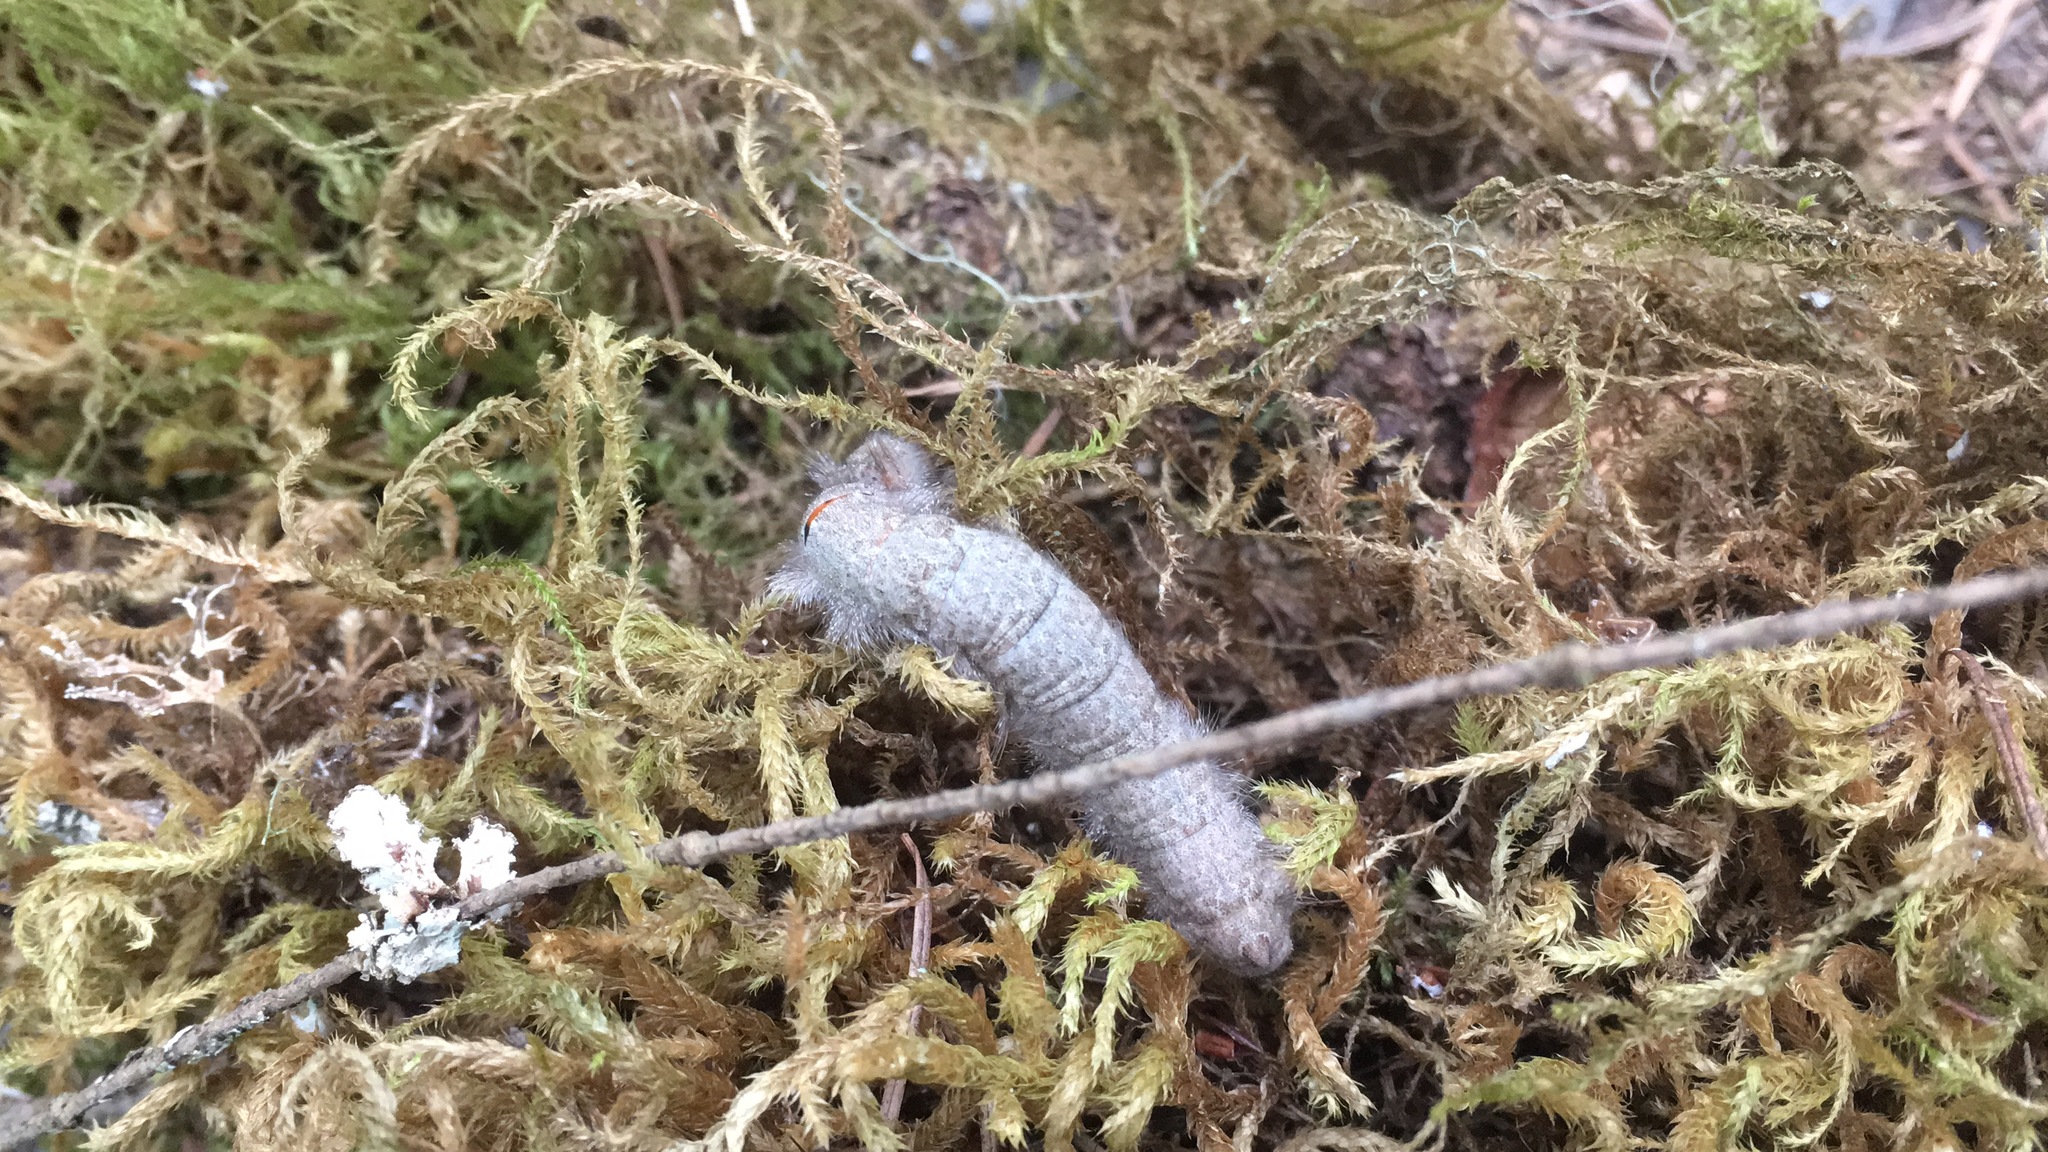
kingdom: Animalia
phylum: Arthropoda
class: Insecta
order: Lepidoptera
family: Lasiocampidae
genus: Phyllodesma
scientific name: Phyllodesma americana
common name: American lappet moth
